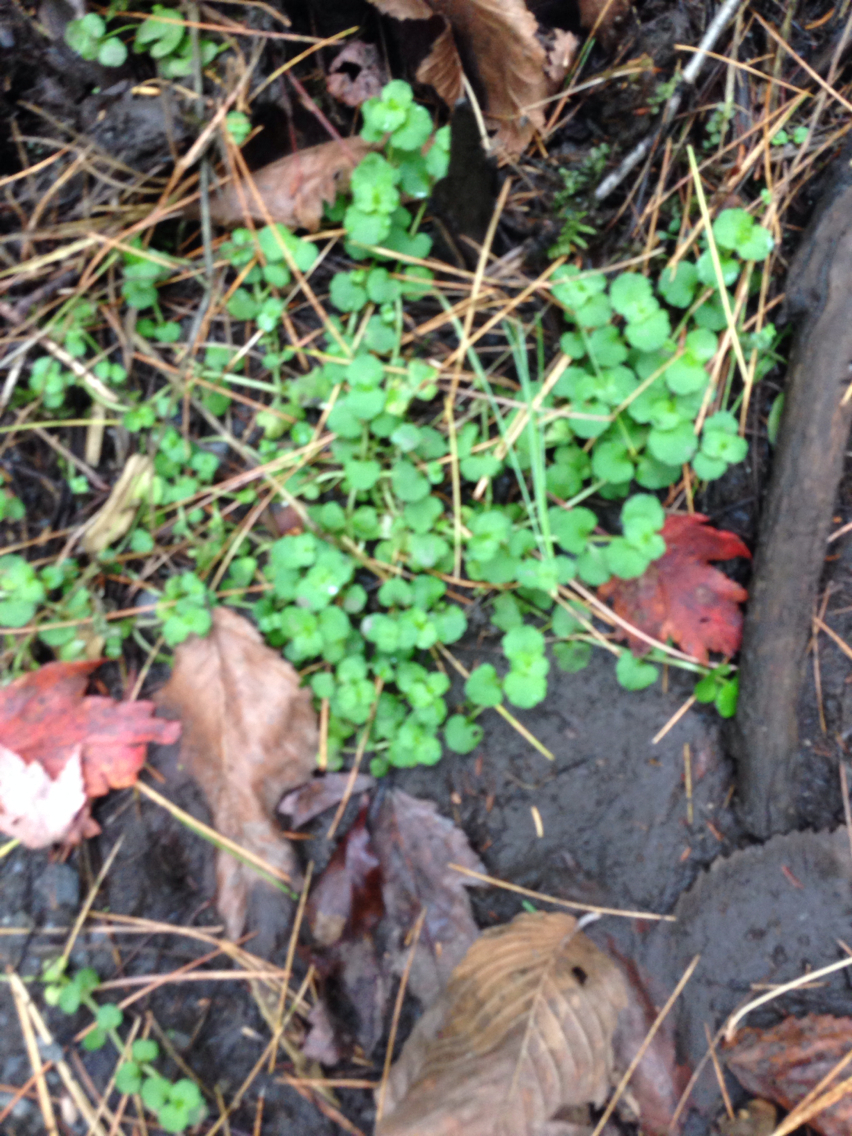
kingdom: Plantae
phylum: Tracheophyta
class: Magnoliopsida
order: Saxifragales
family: Saxifragaceae
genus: Chrysosplenium
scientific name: Chrysosplenium americanum
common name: American golden-saxifrage
